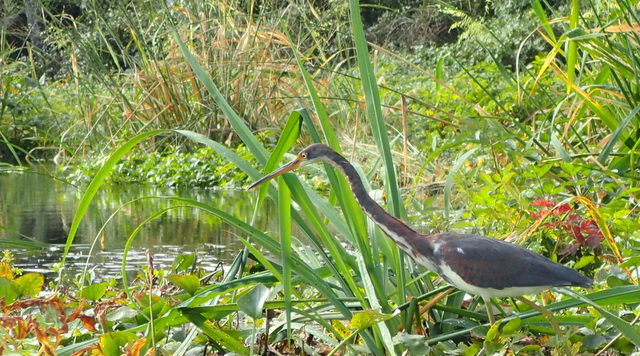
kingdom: Animalia
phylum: Chordata
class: Aves
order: Pelecaniformes
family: Ardeidae
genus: Egretta
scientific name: Egretta tricolor
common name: Tricolored heron
